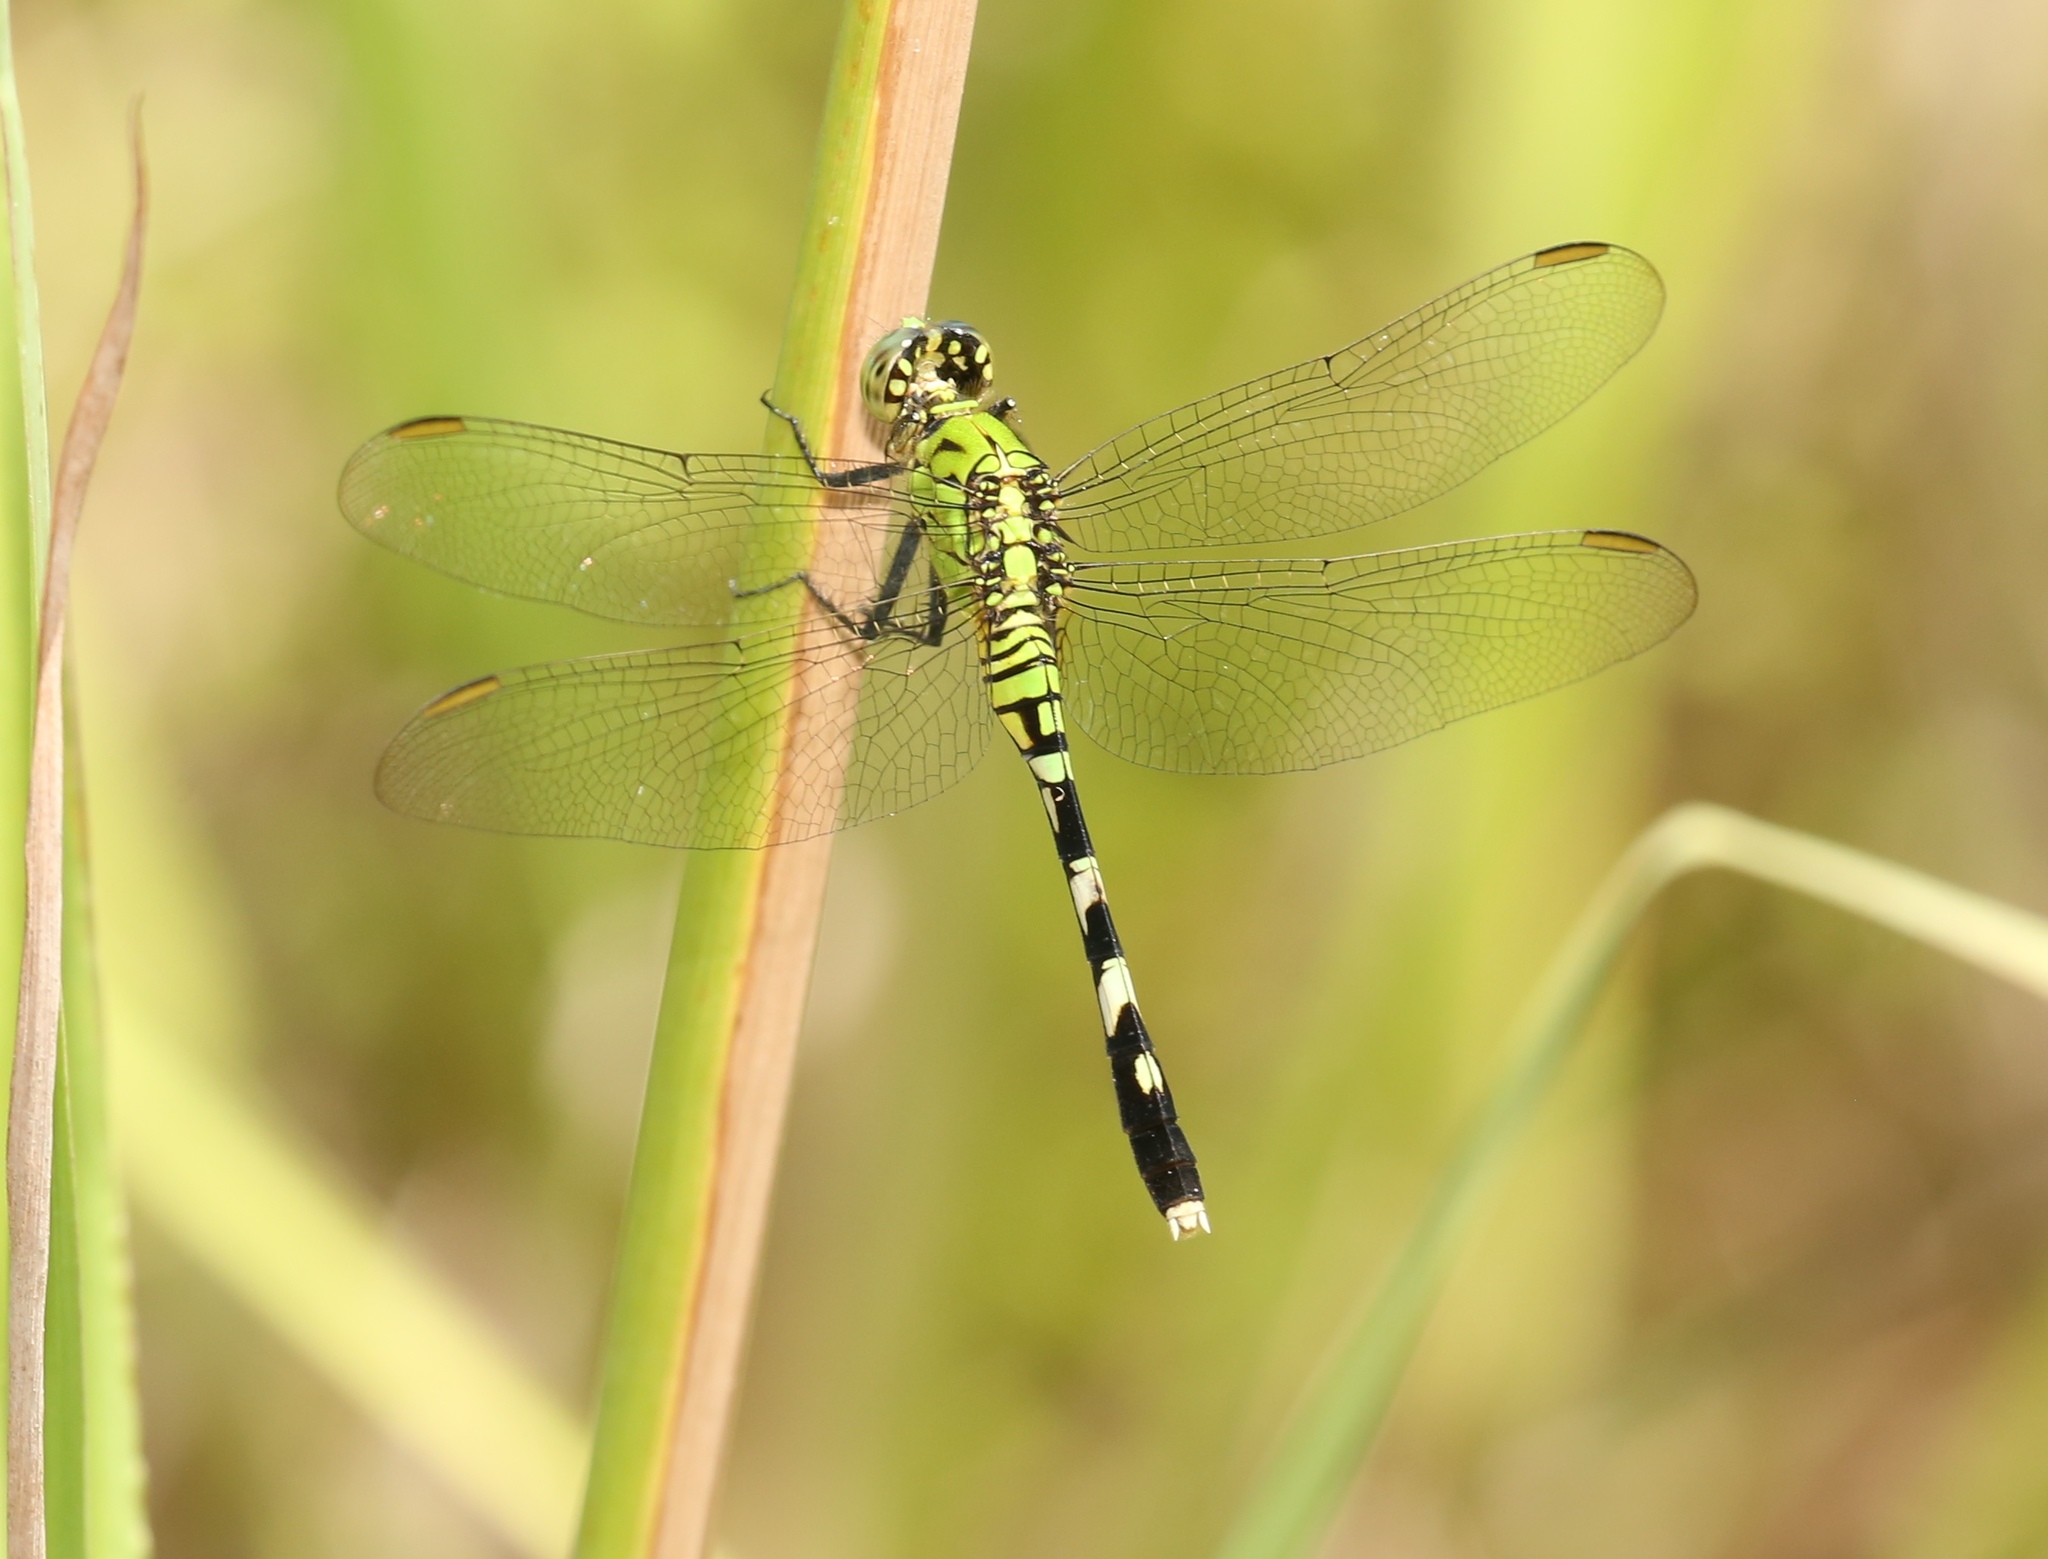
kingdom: Animalia
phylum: Arthropoda
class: Insecta
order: Odonata
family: Libellulidae
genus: Erythemis
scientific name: Erythemis simplicicollis
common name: Eastern pondhawk
